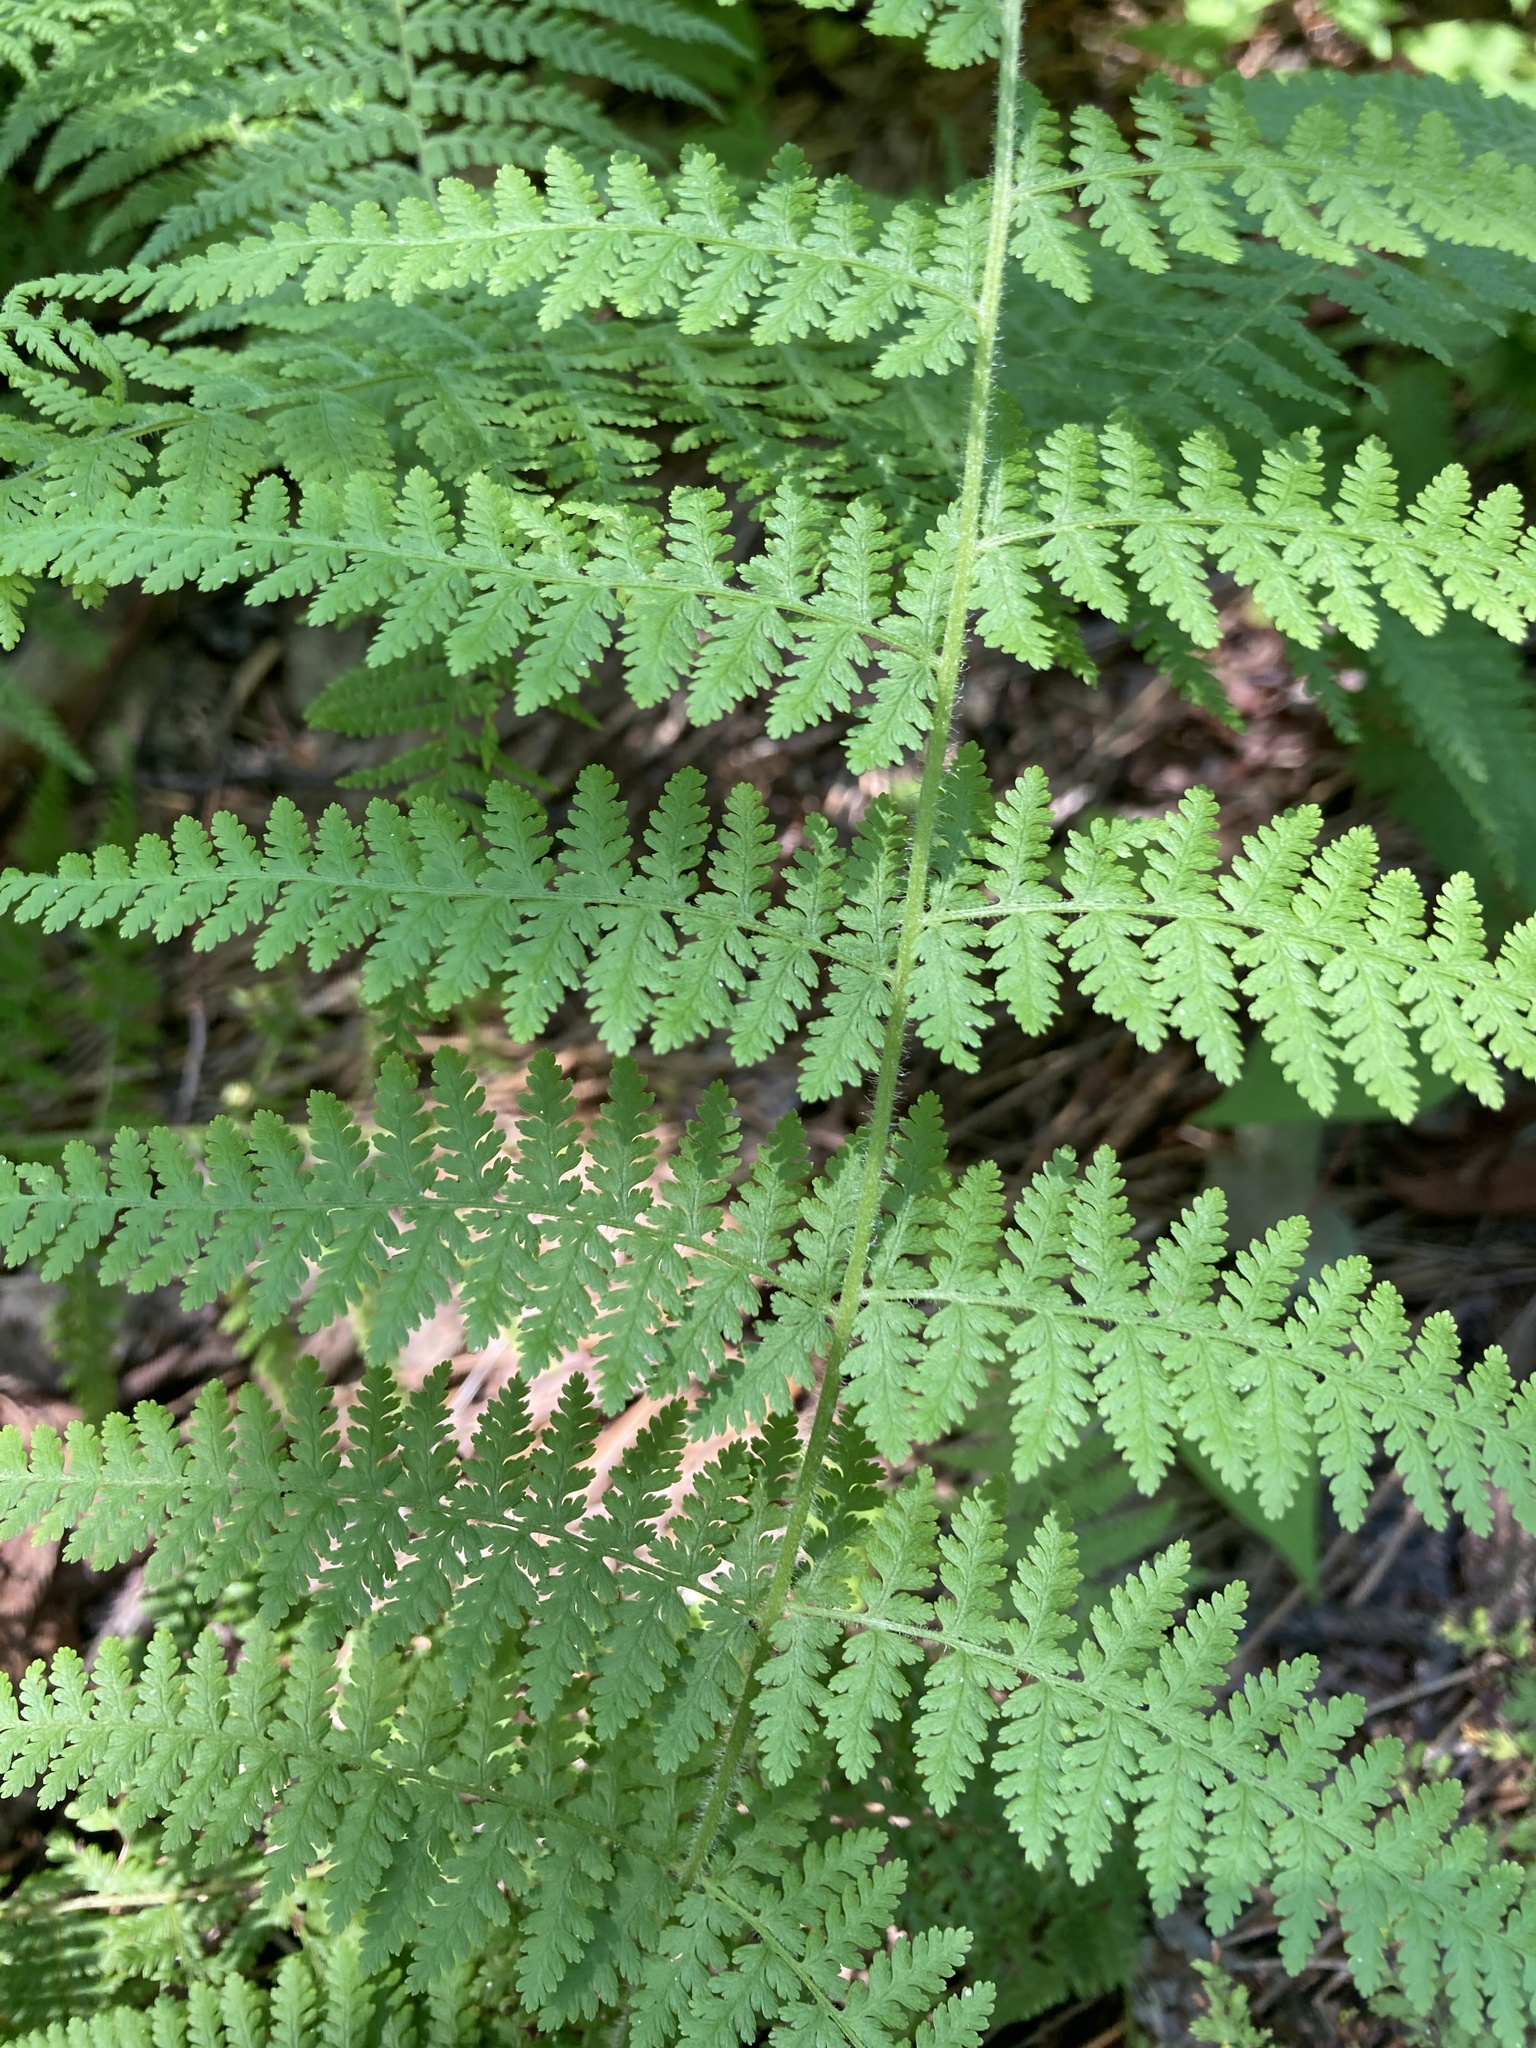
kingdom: Plantae
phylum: Tracheophyta
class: Polypodiopsida
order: Polypodiales
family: Dennstaedtiaceae
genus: Sitobolium
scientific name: Sitobolium punctilobum
